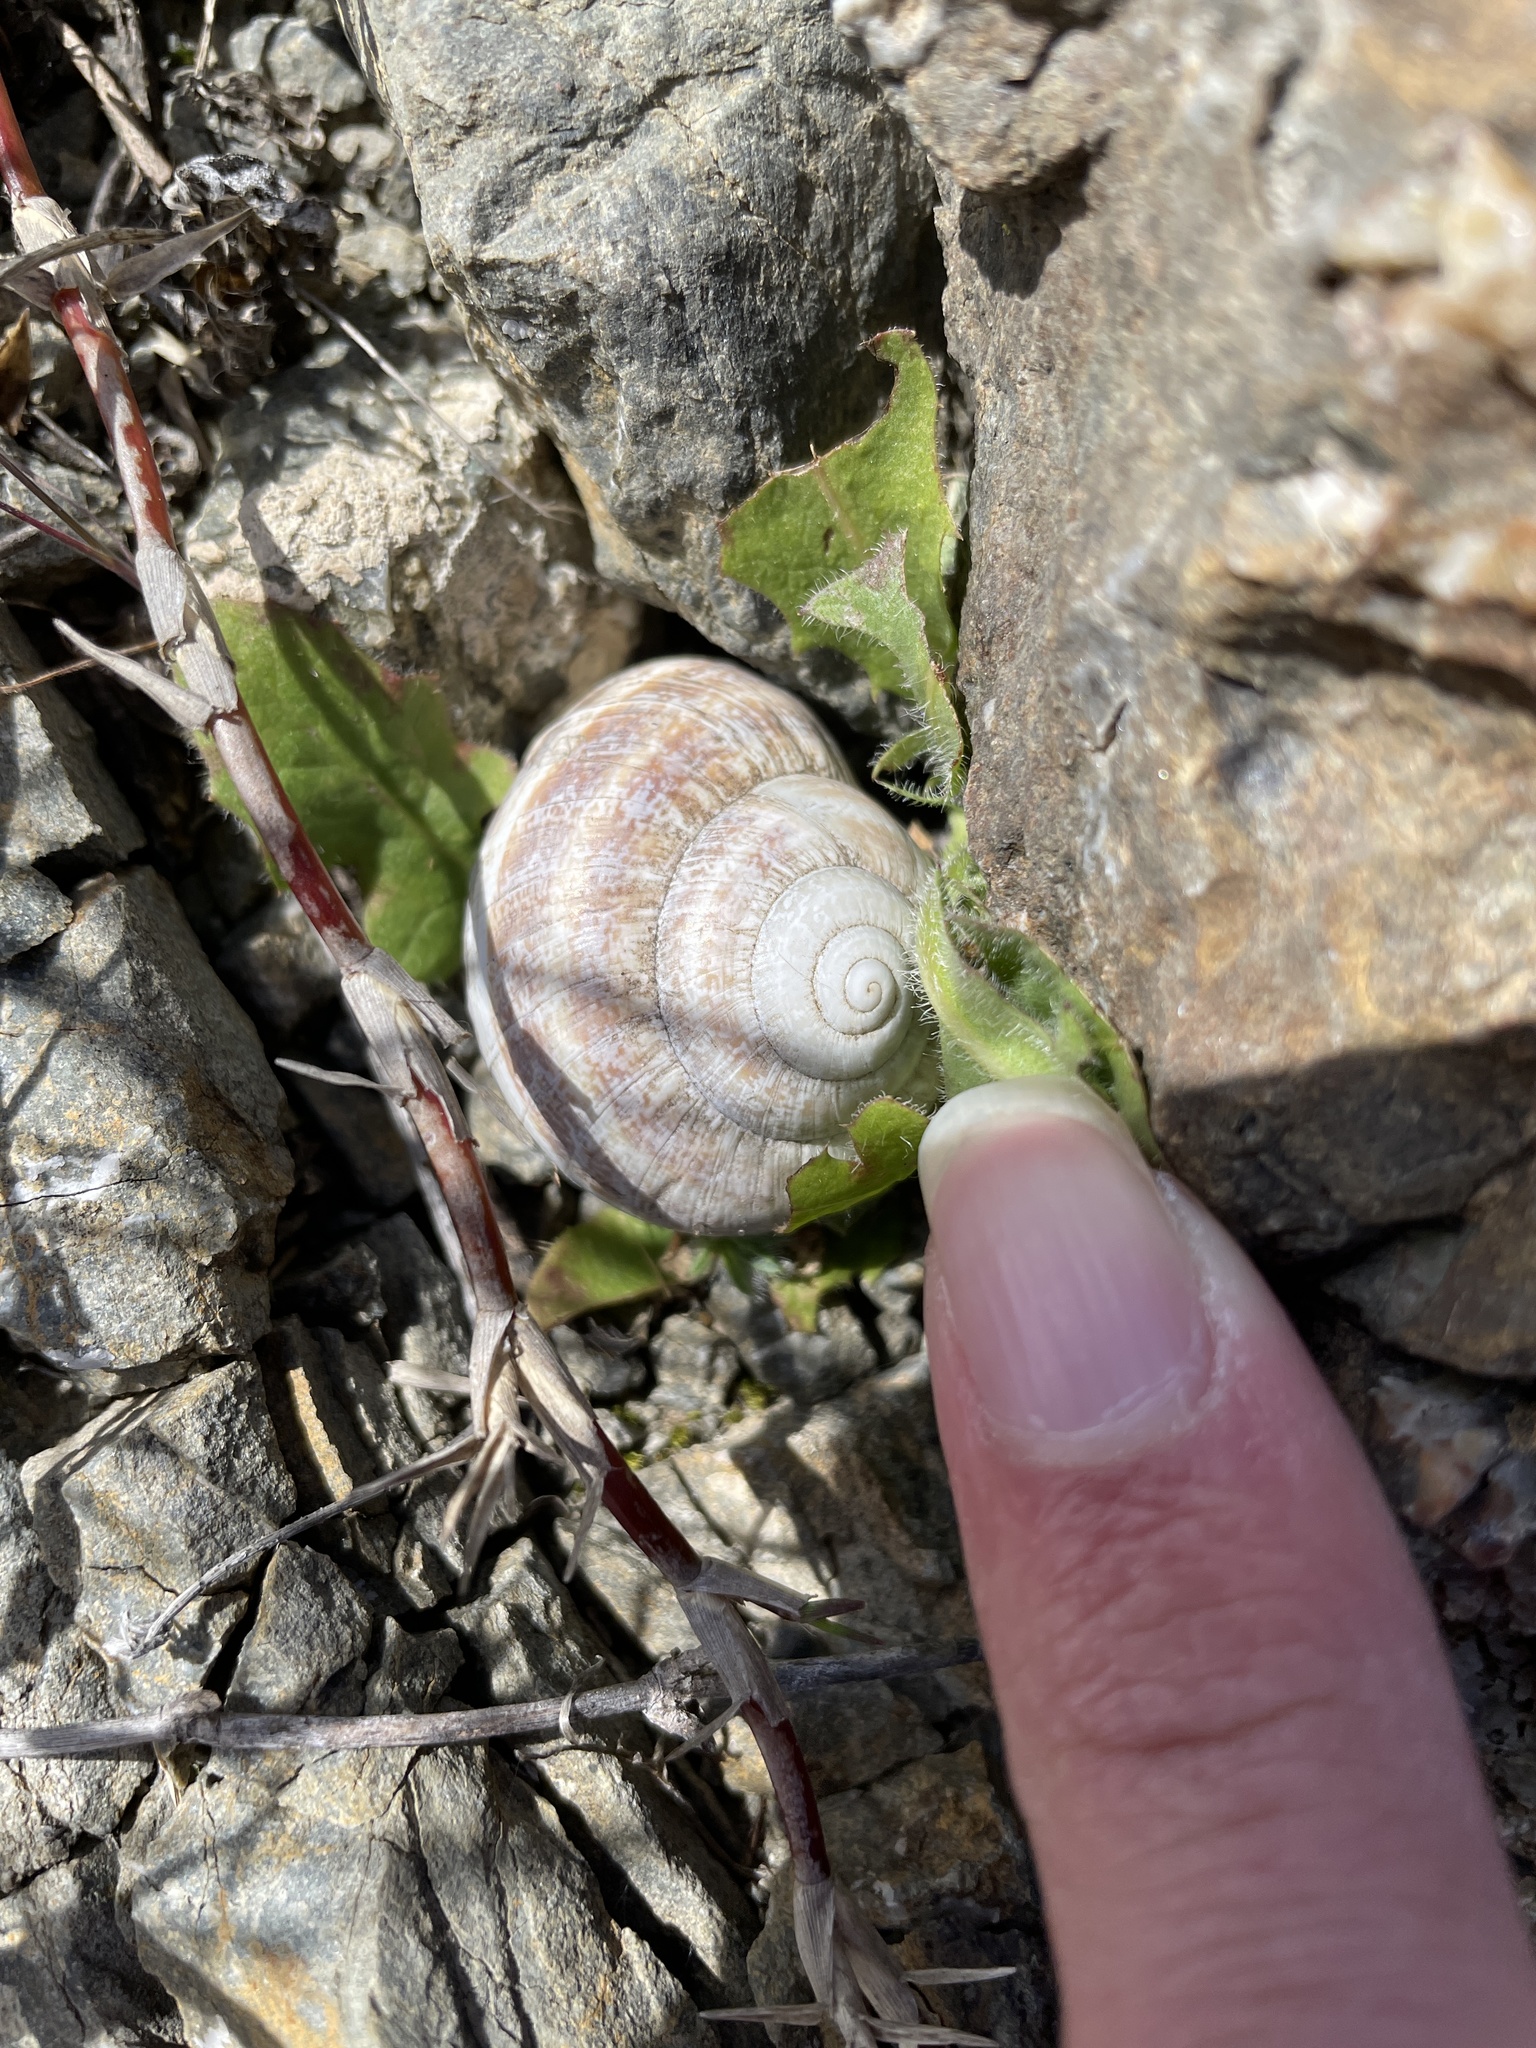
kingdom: Animalia
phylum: Mollusca
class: Gastropoda
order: Stylommatophora
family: Helicidae
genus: Otala
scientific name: Otala lactea
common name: Milk snail
